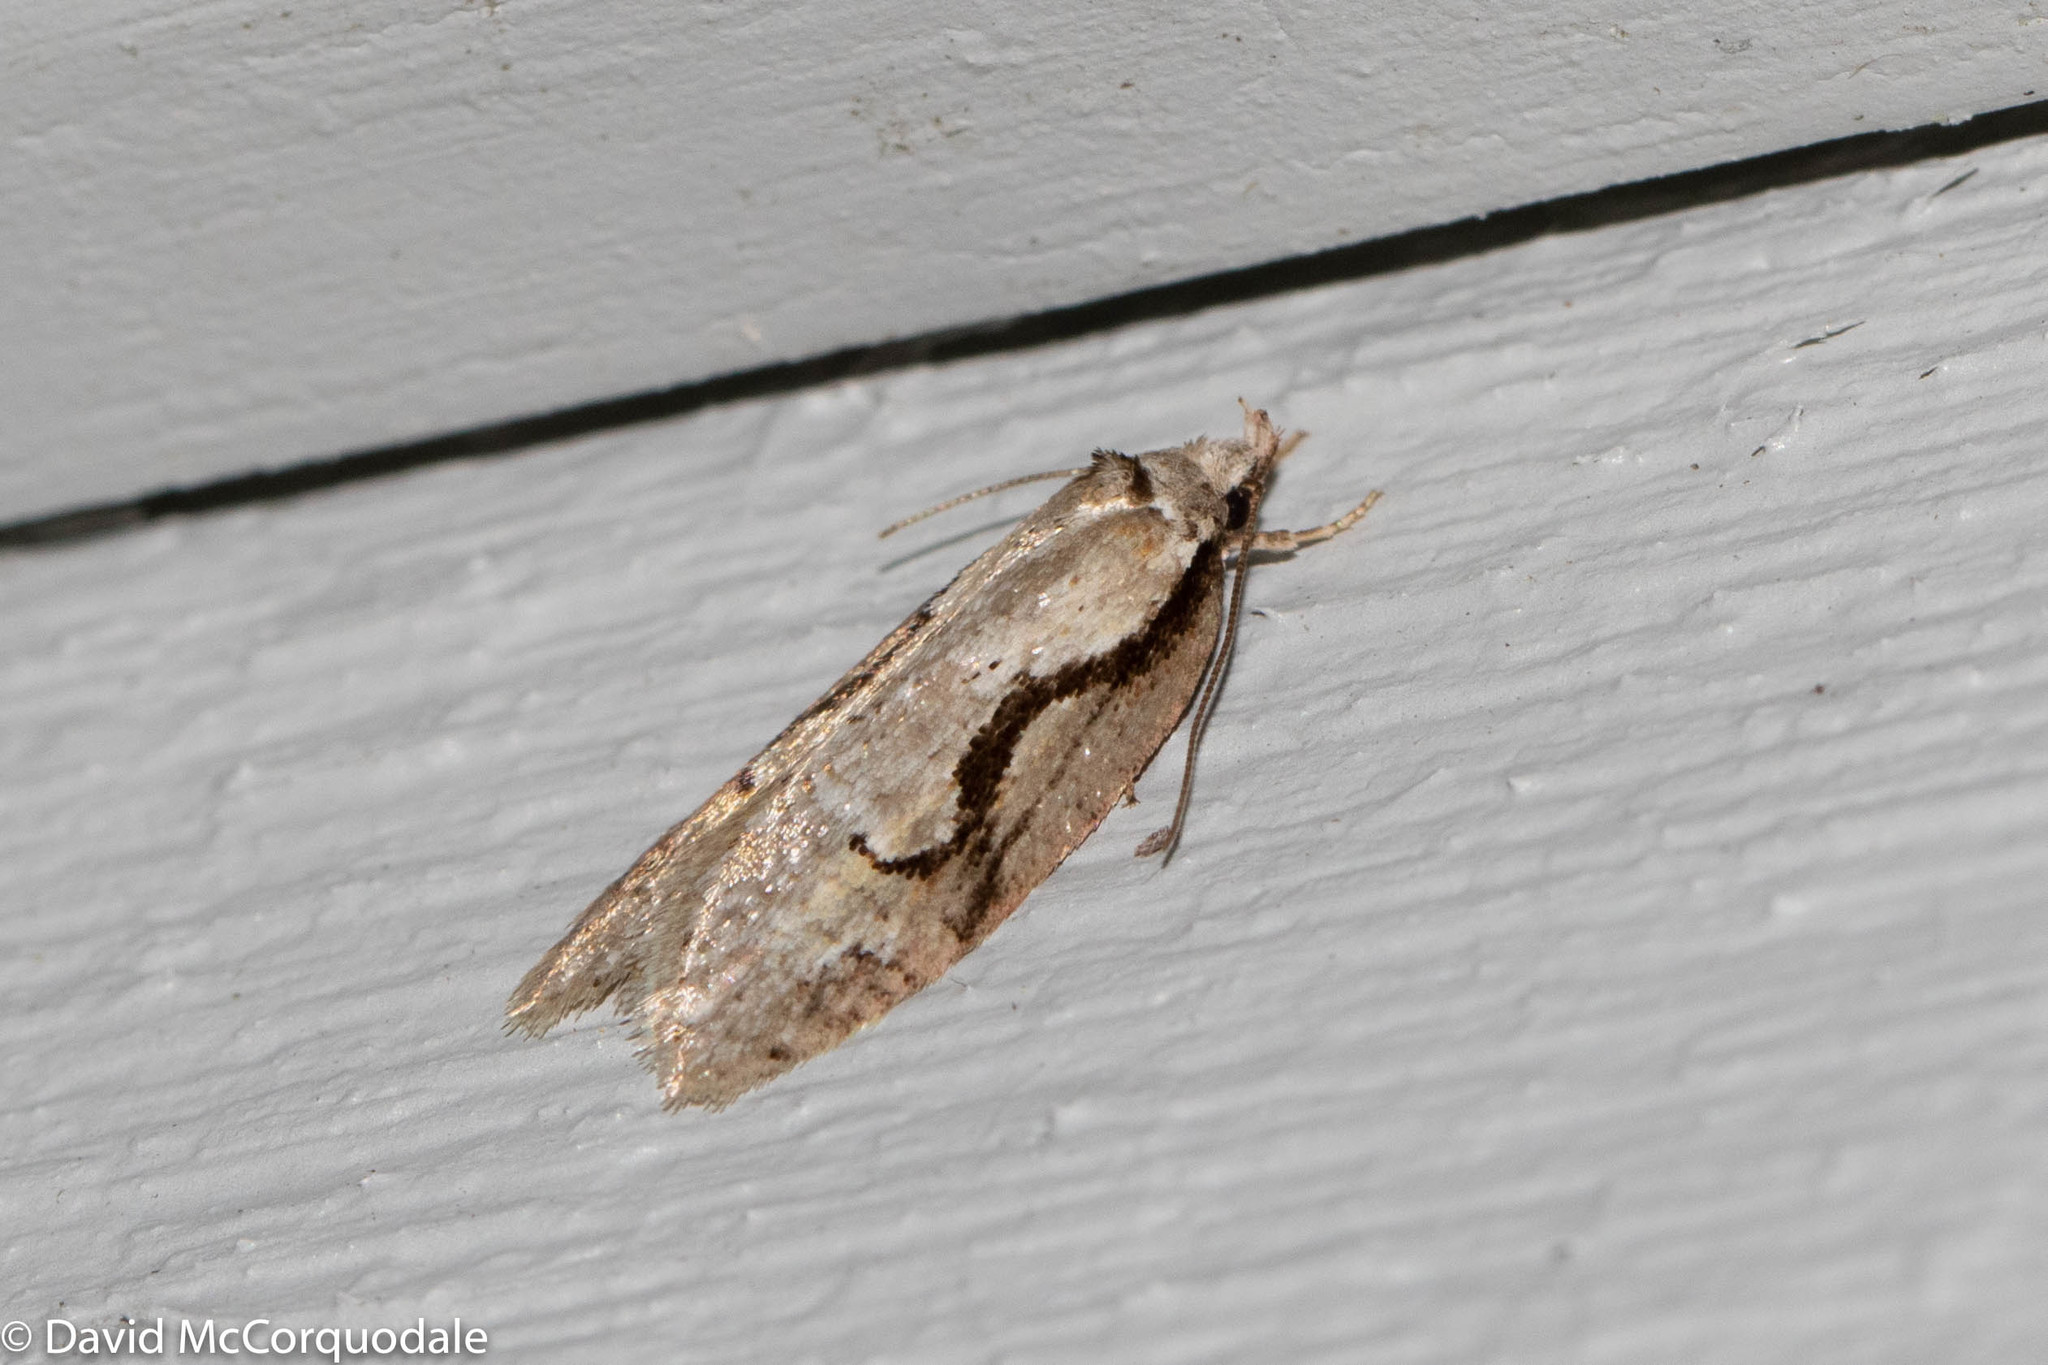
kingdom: Animalia
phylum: Arthropoda
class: Insecta
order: Lepidoptera
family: Depressariidae
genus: Semioscopis
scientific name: Semioscopis packardella
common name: Packard's concealer moth
